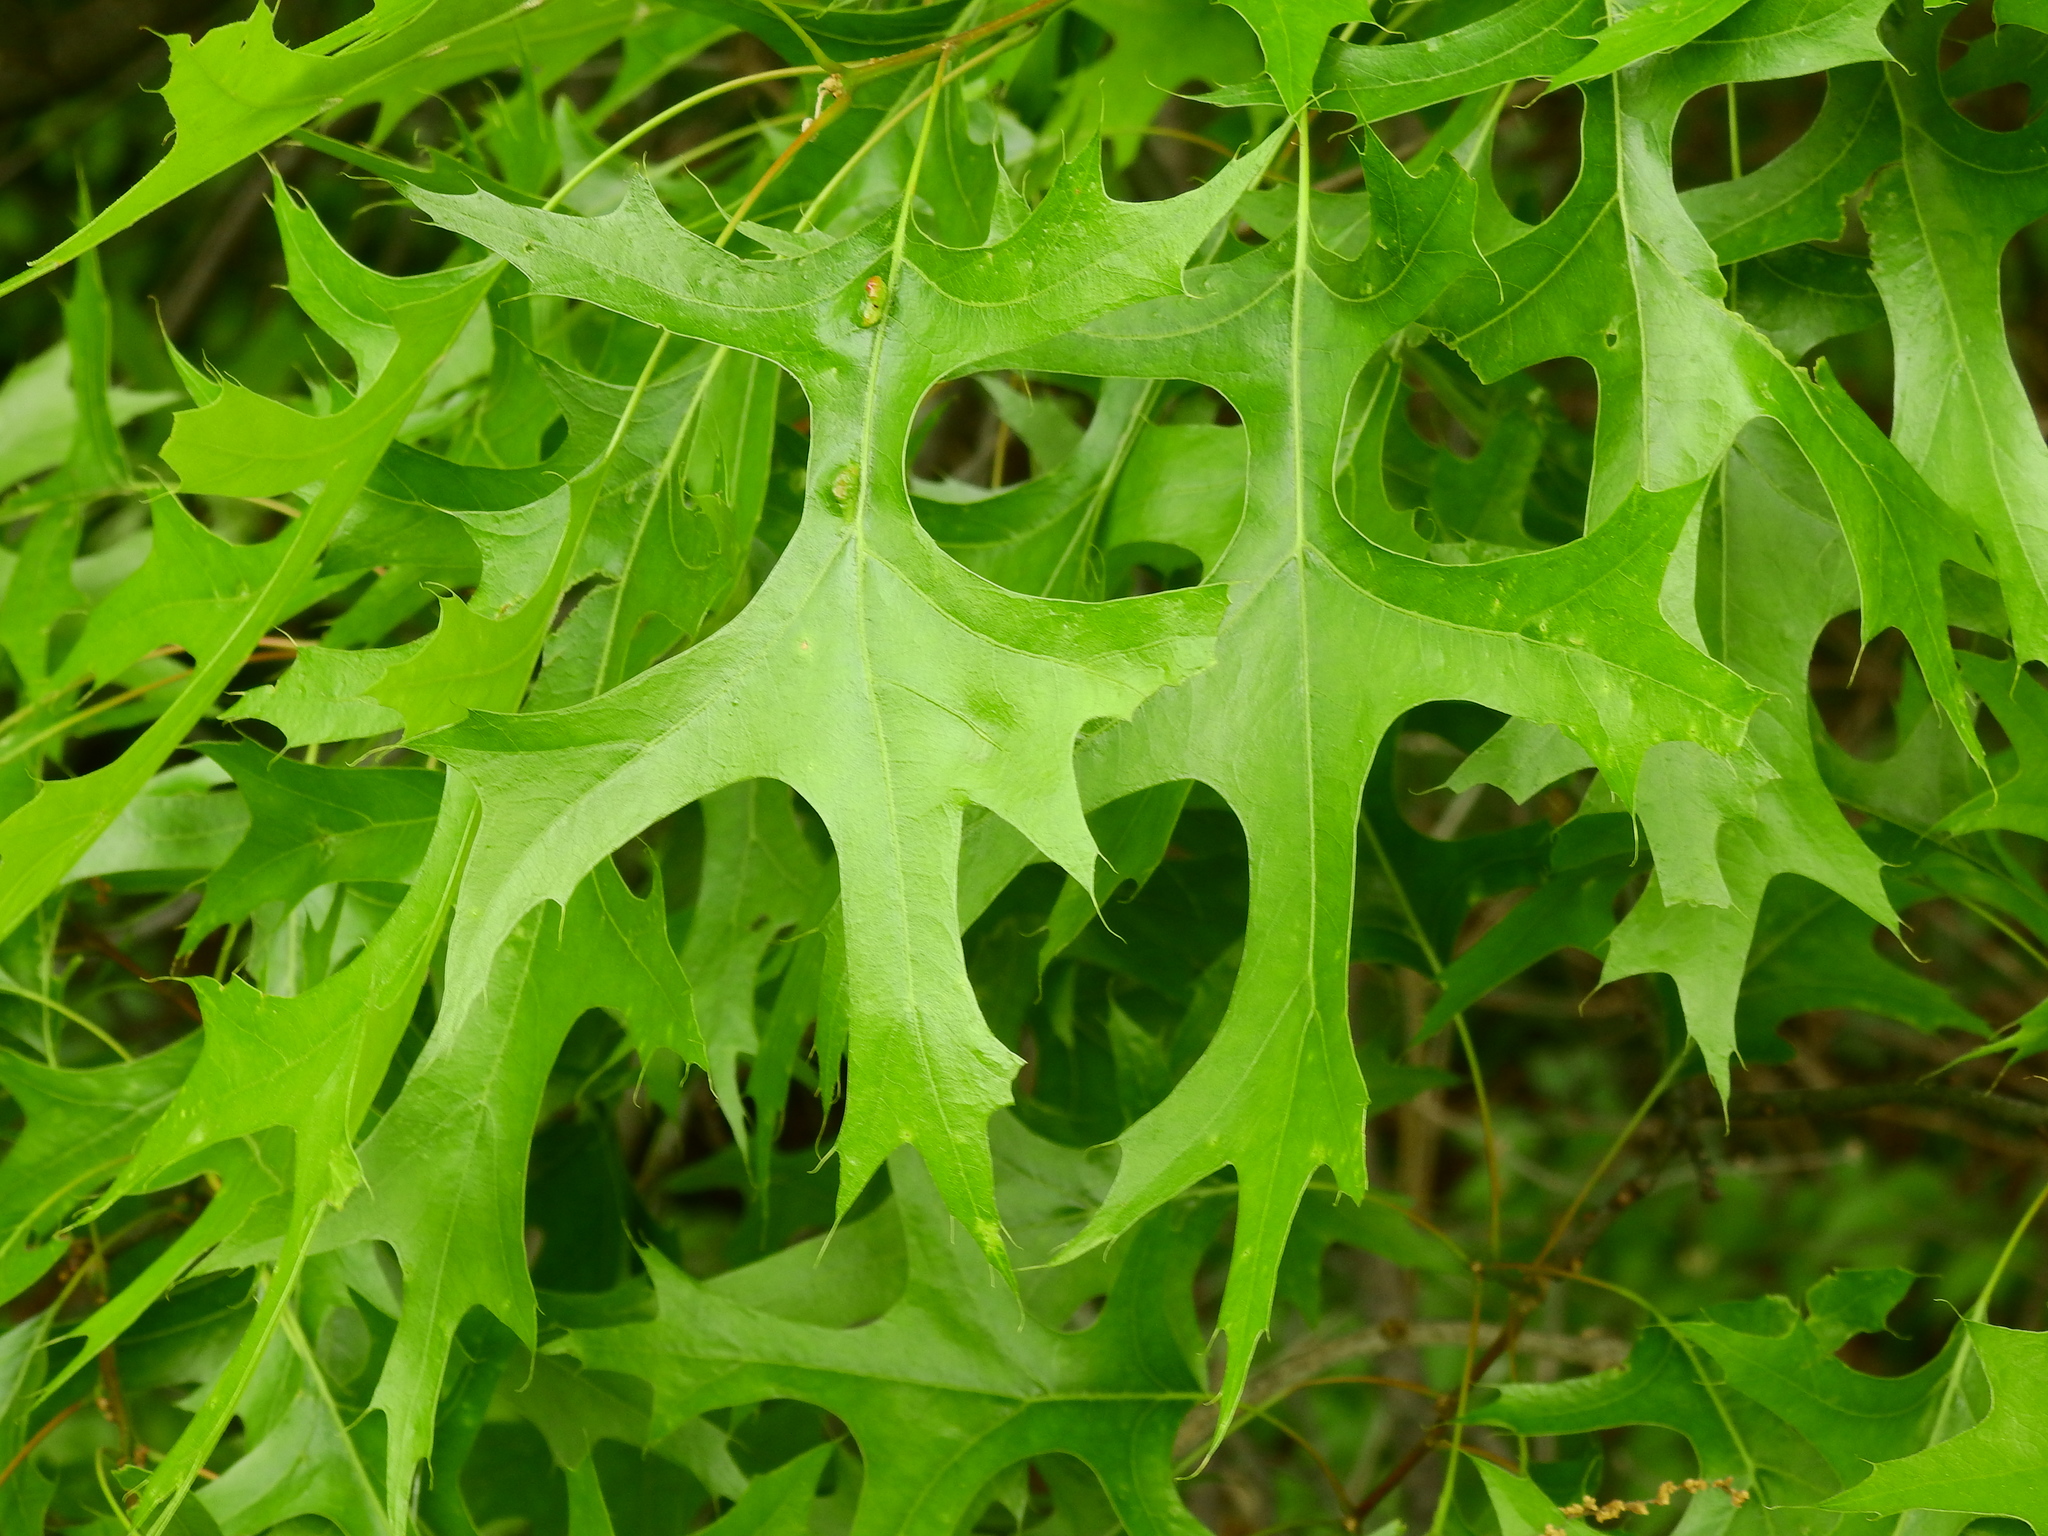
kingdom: Plantae
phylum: Tracheophyta
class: Magnoliopsida
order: Fagales
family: Fagaceae
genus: Quercus
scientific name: Quercus palustris
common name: Pin oak
